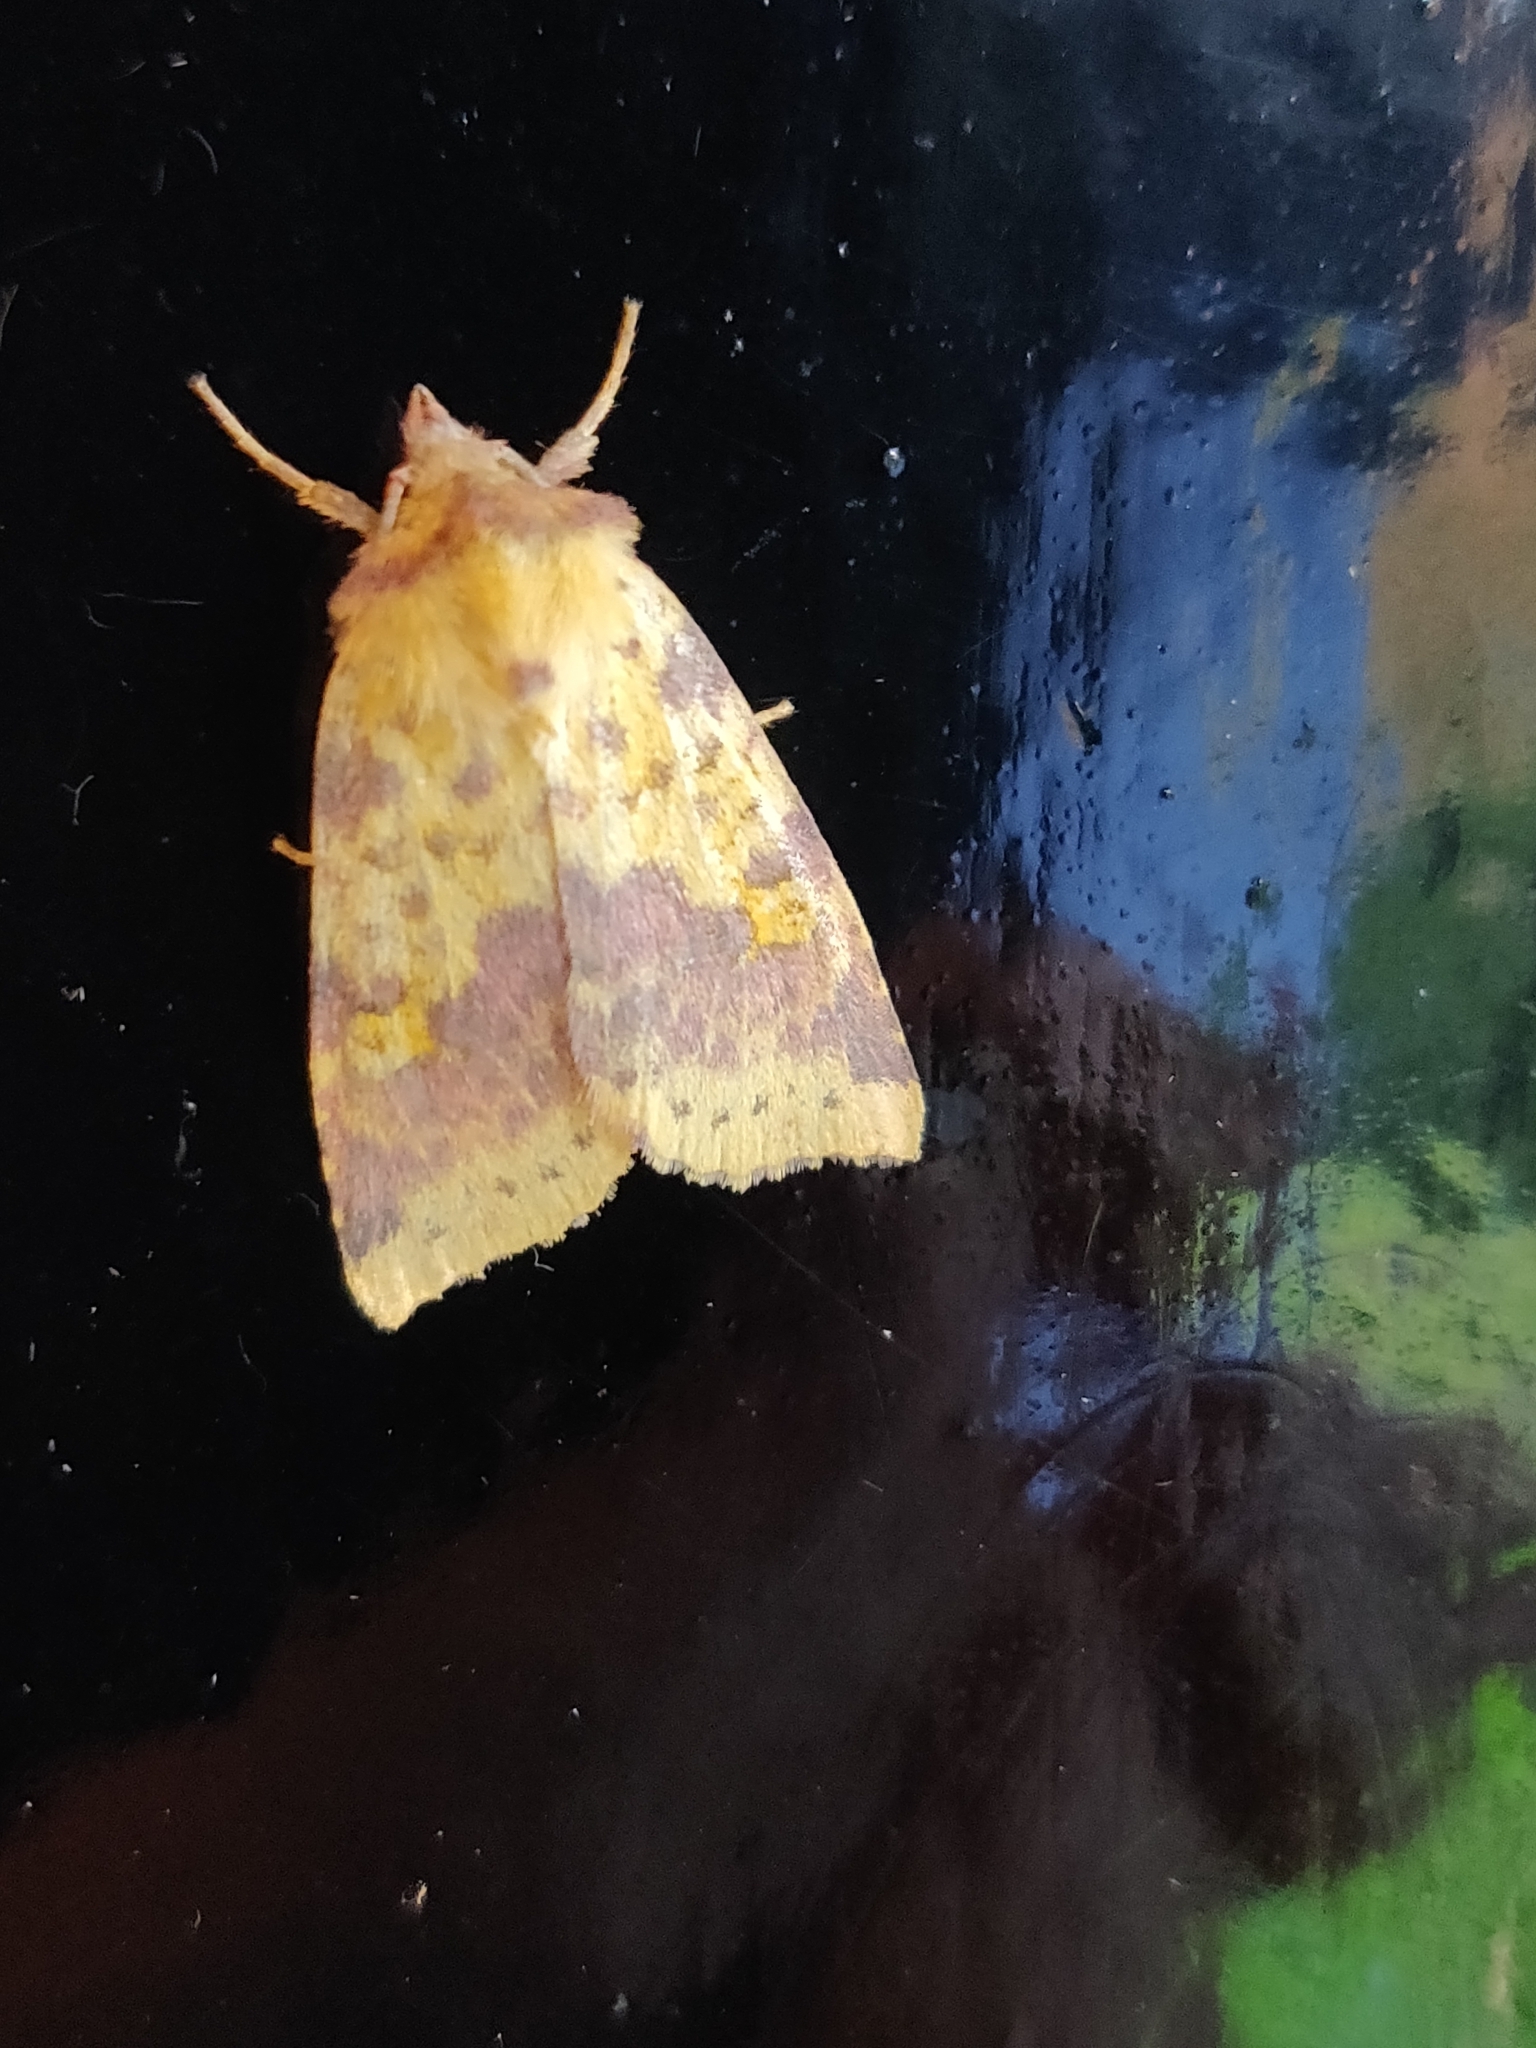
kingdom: Animalia
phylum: Arthropoda
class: Insecta
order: Lepidoptera
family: Noctuidae
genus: Xanthia
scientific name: Xanthia togata
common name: Pink-barred sallow
